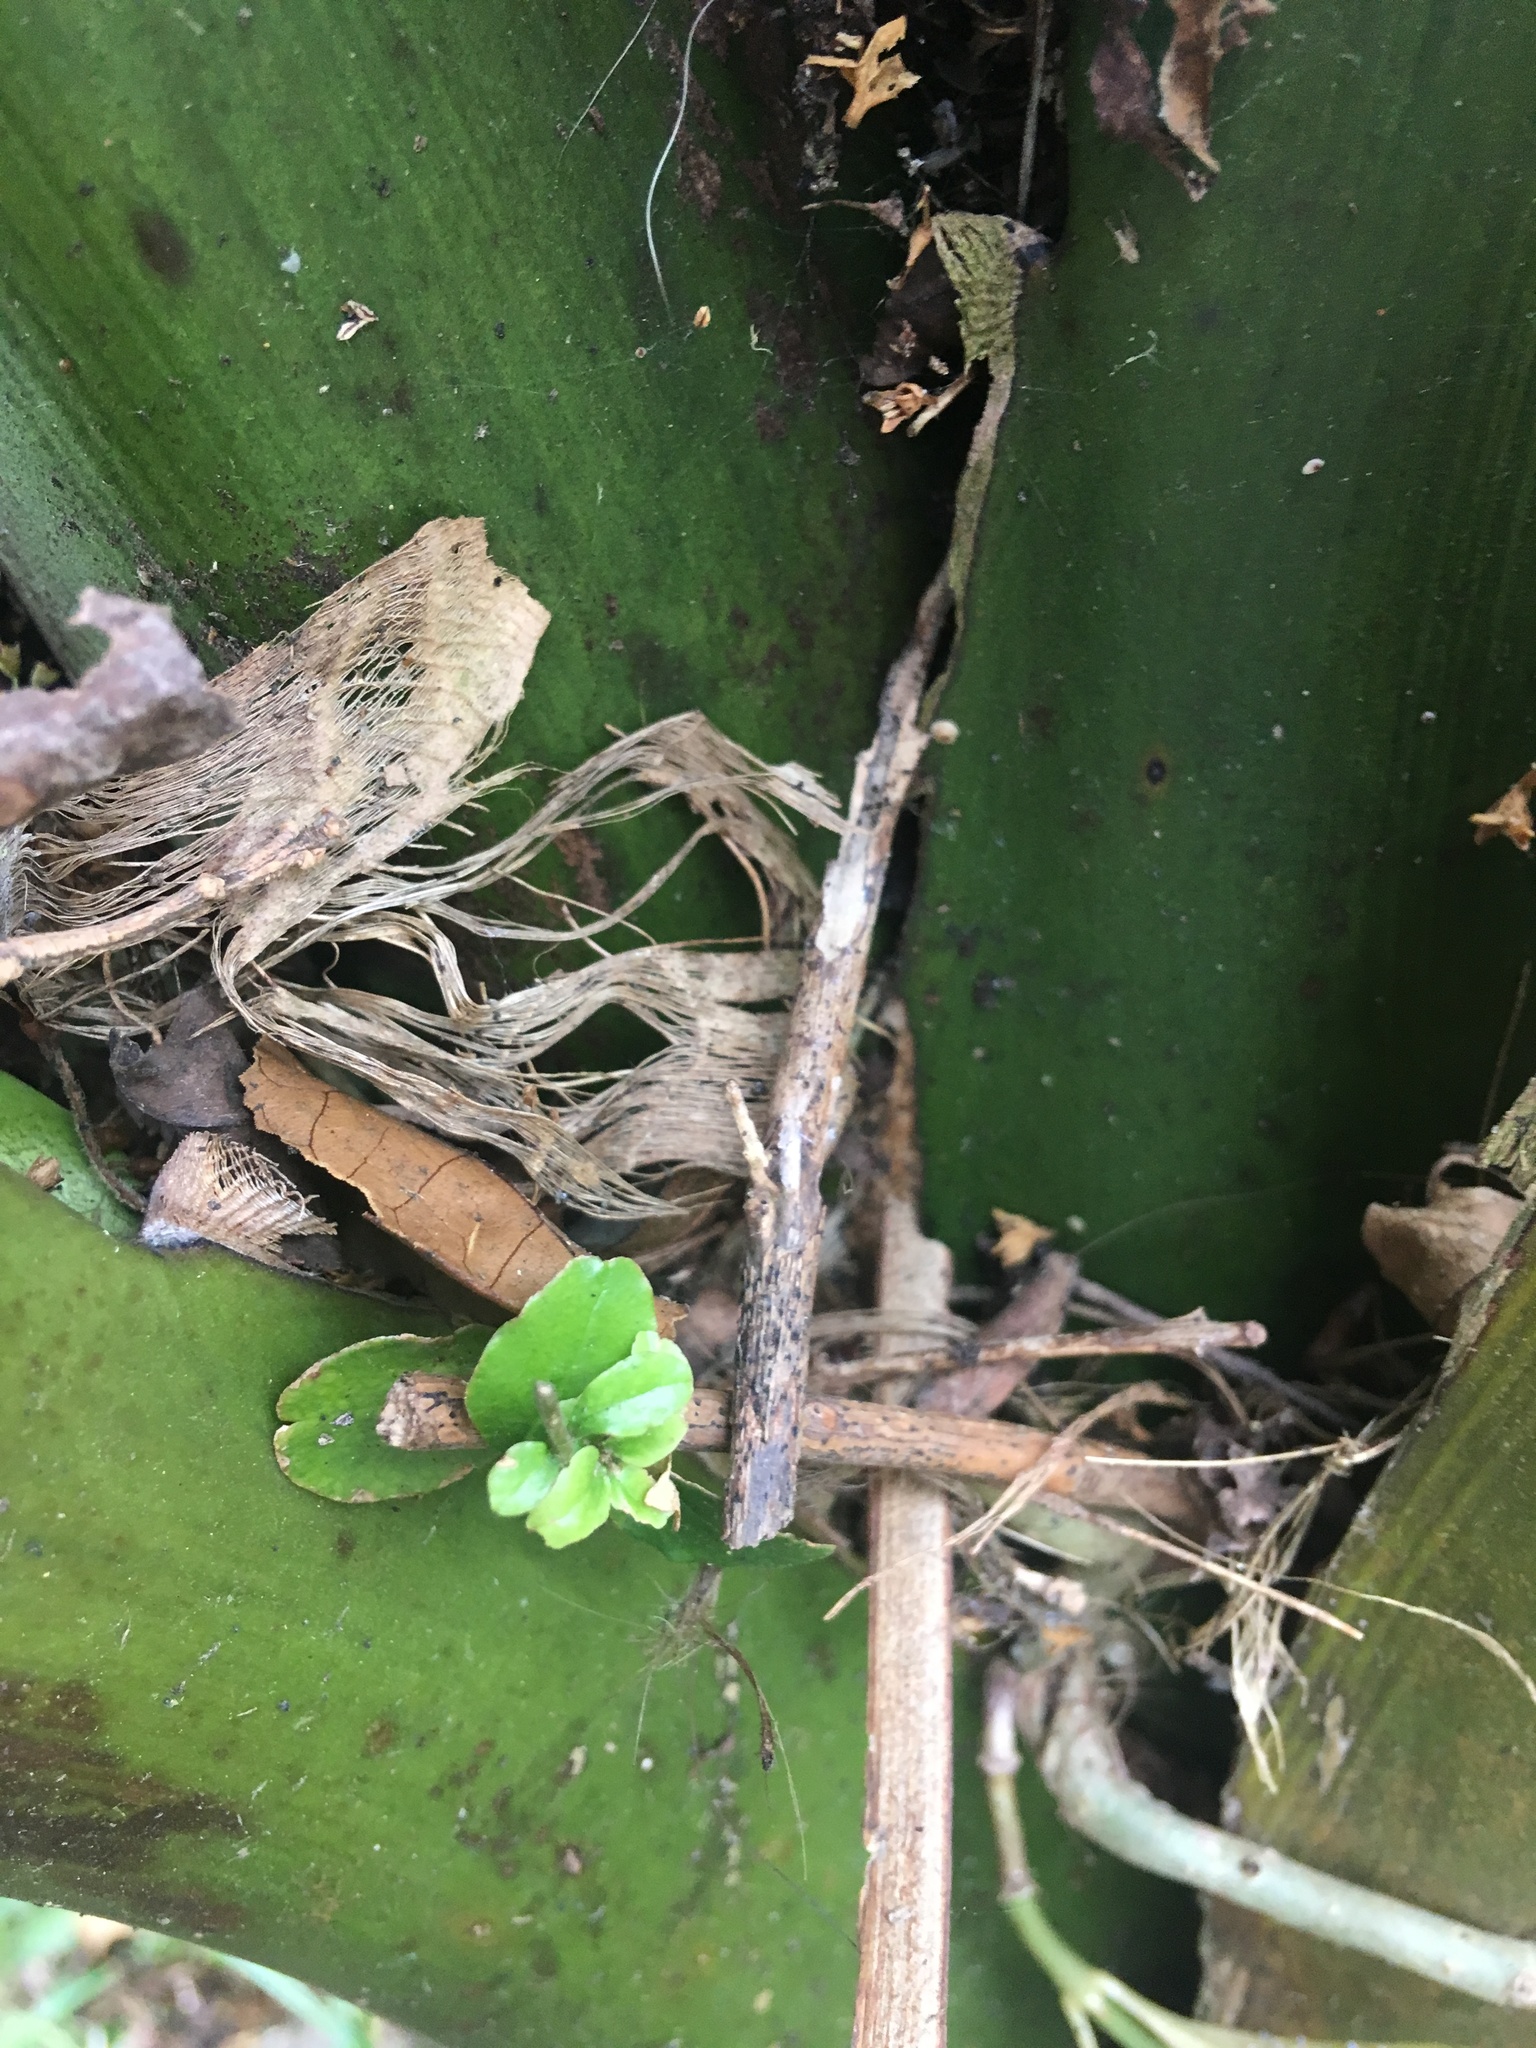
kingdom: Plantae
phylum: Tracheophyta
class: Magnoliopsida
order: Lamiales
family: Oleaceae
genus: Ligustrum
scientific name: Ligustrum sinense
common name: Chinese privet
